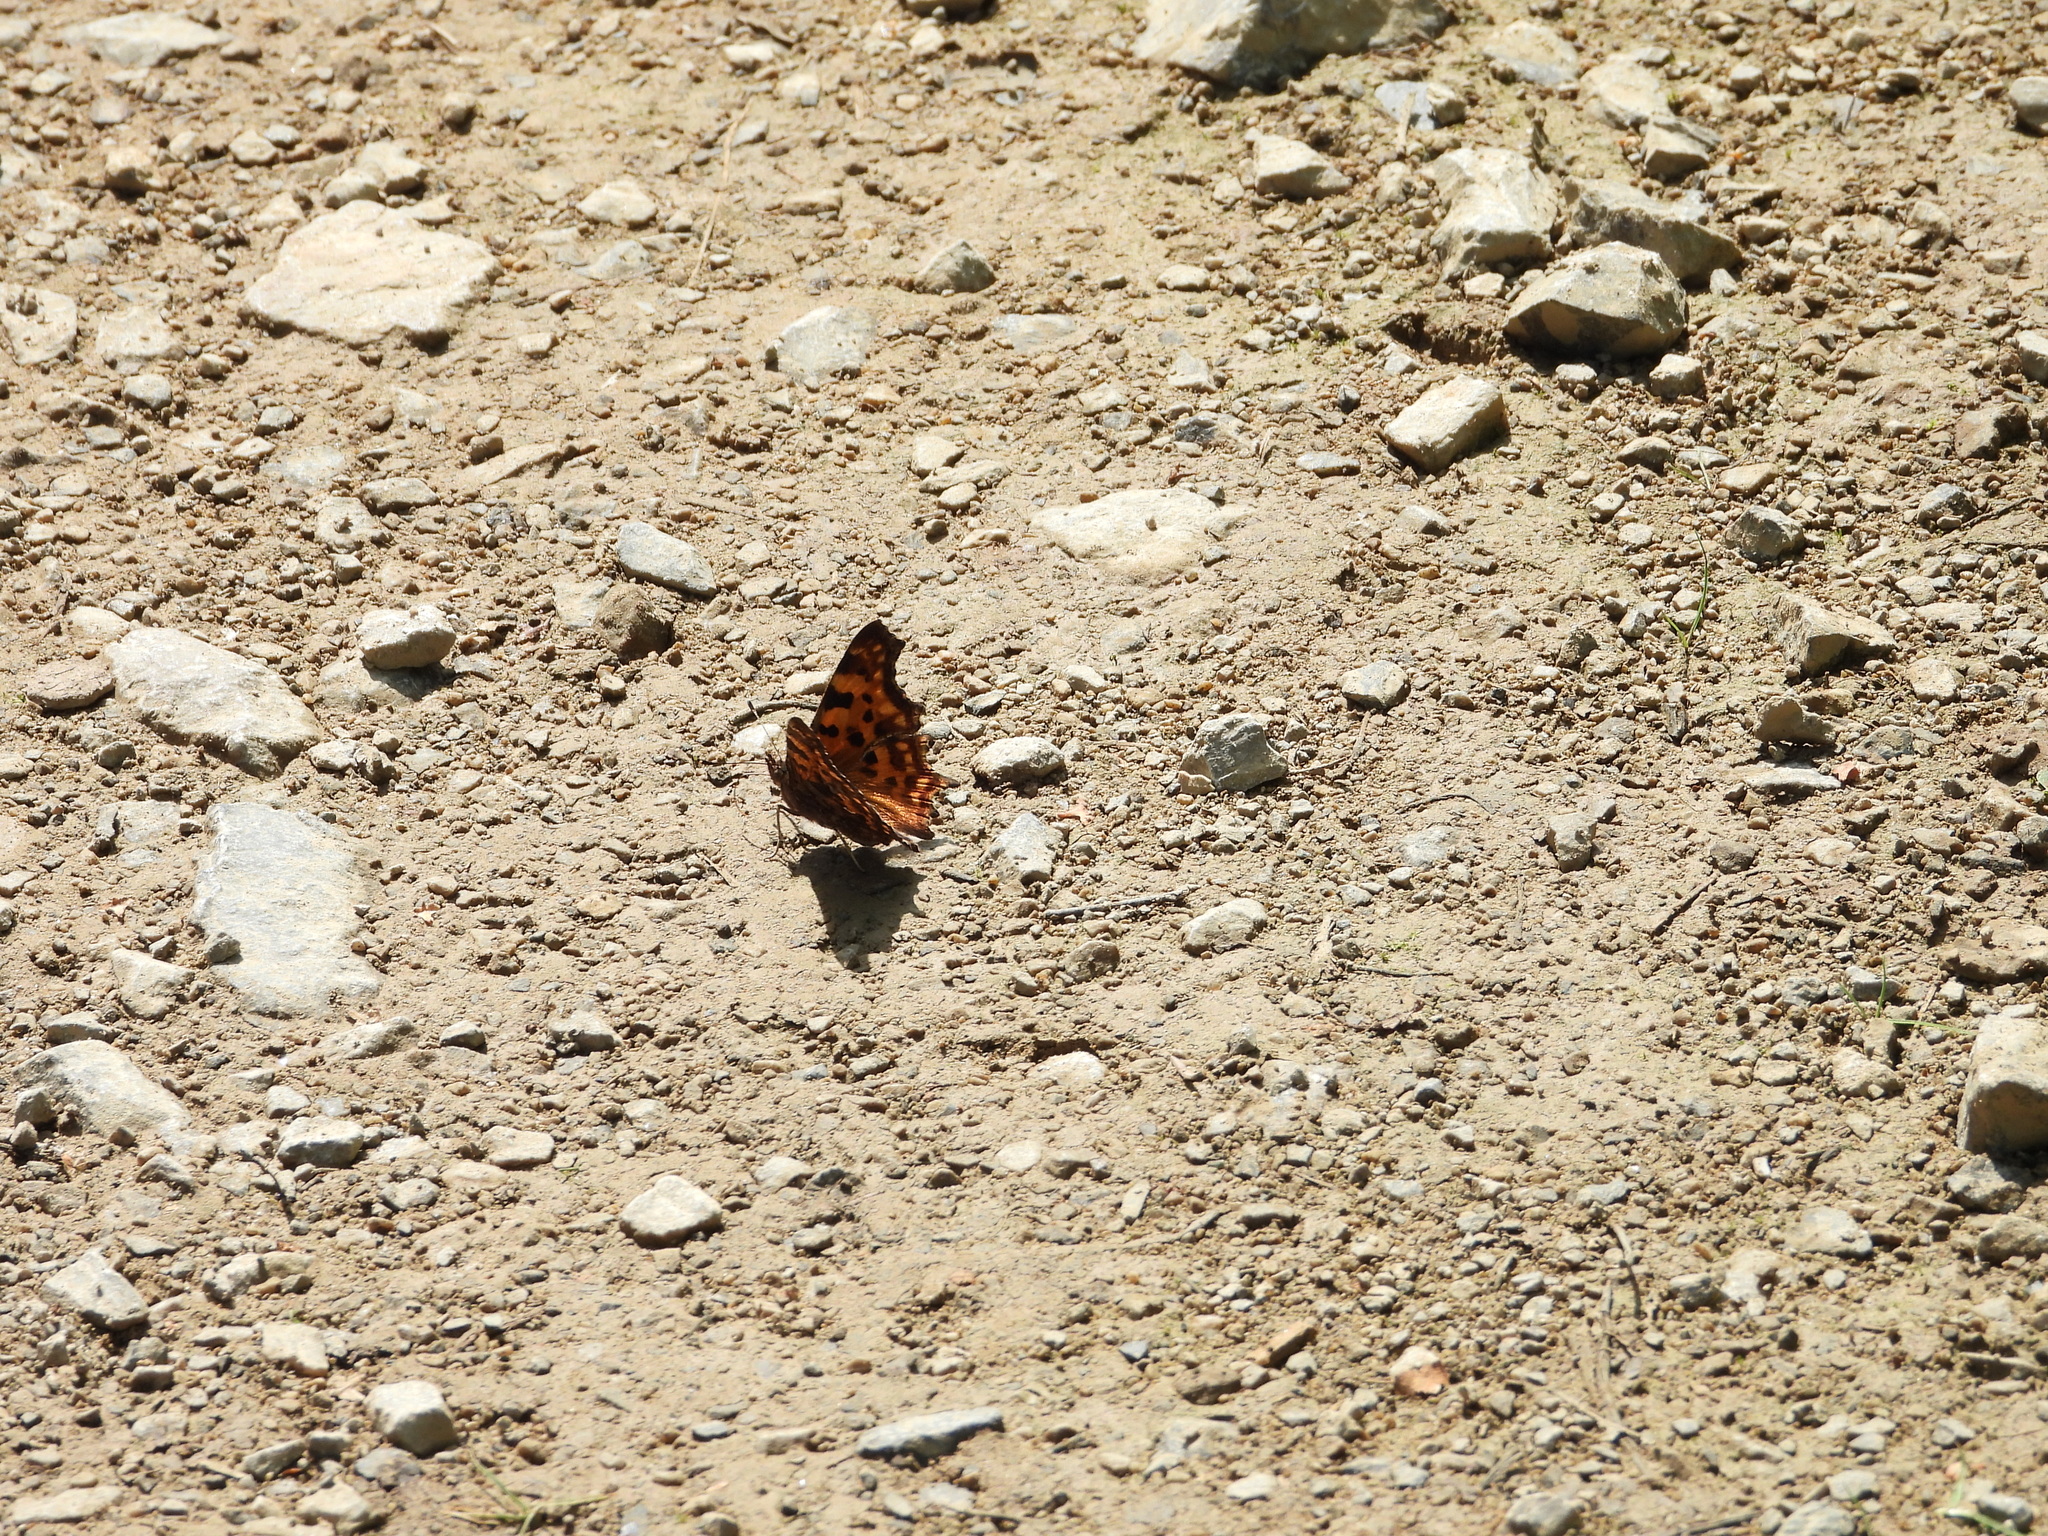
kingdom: Animalia
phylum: Arthropoda
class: Insecta
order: Lepidoptera
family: Nymphalidae
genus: Polygonia
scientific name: Polygonia c-album
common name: Comma
